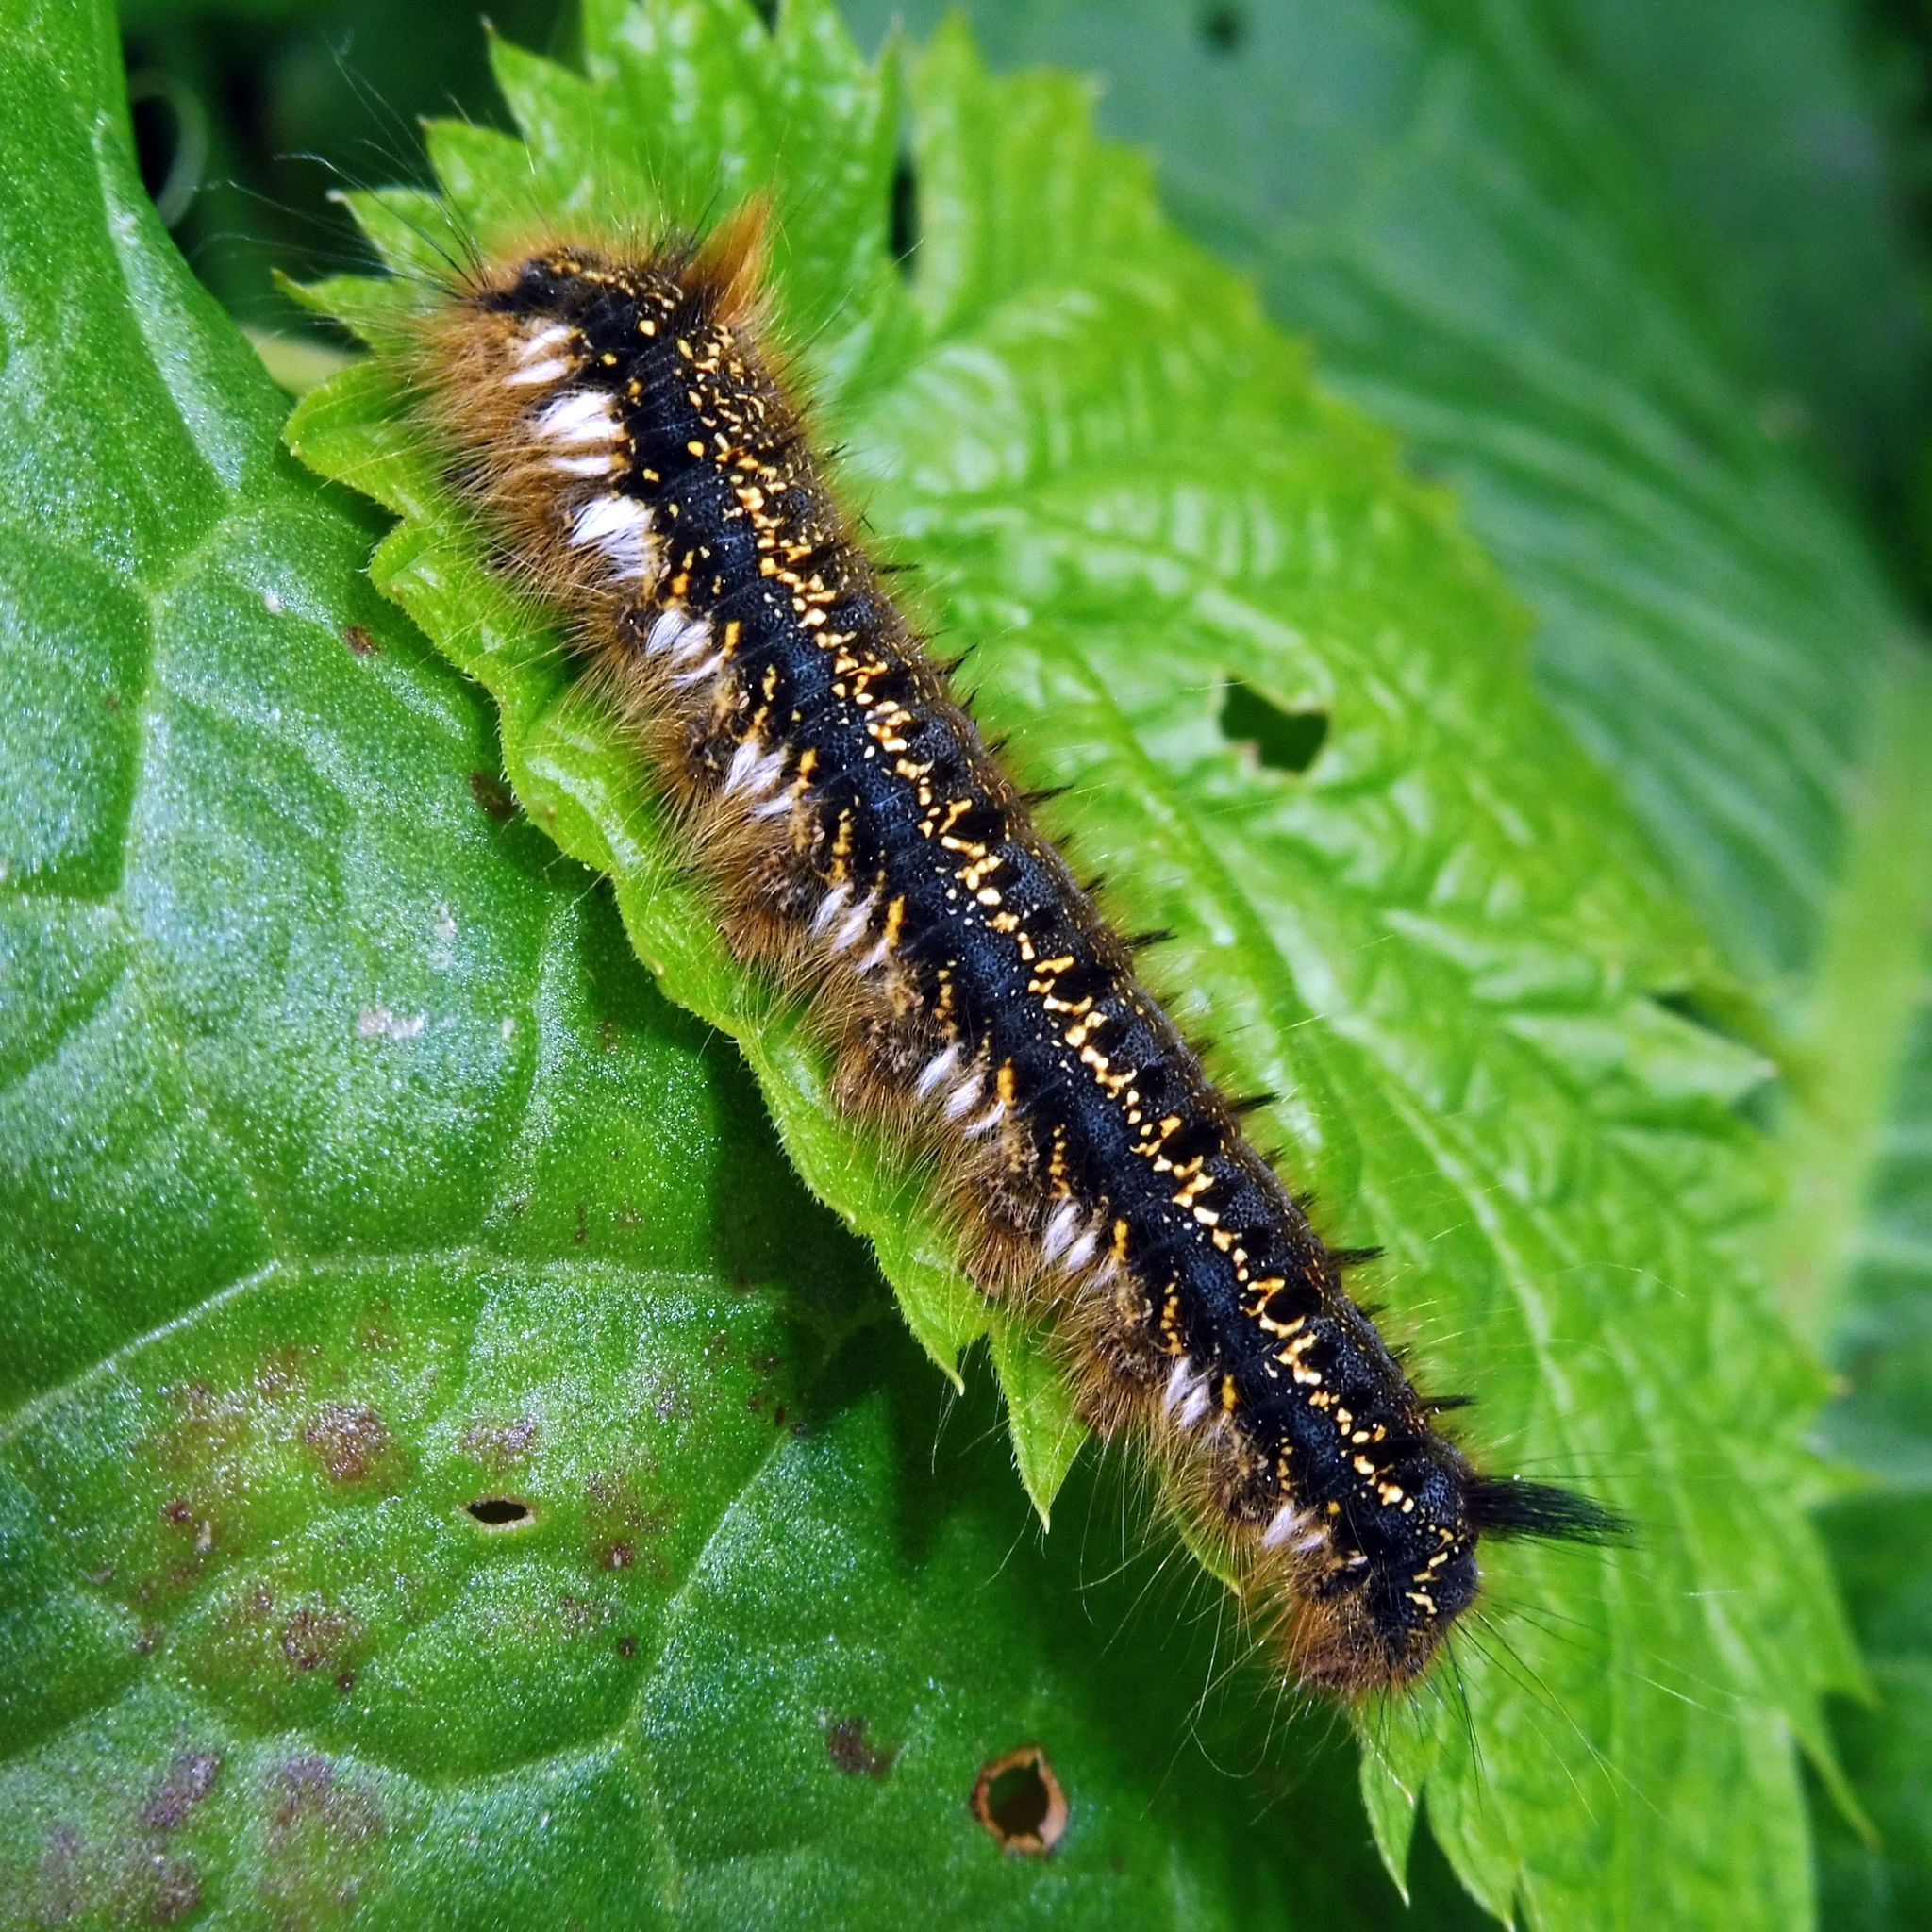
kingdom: Animalia
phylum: Arthropoda
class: Insecta
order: Lepidoptera
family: Lasiocampidae
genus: Euthrix
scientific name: Euthrix potatoria
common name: Drinker
